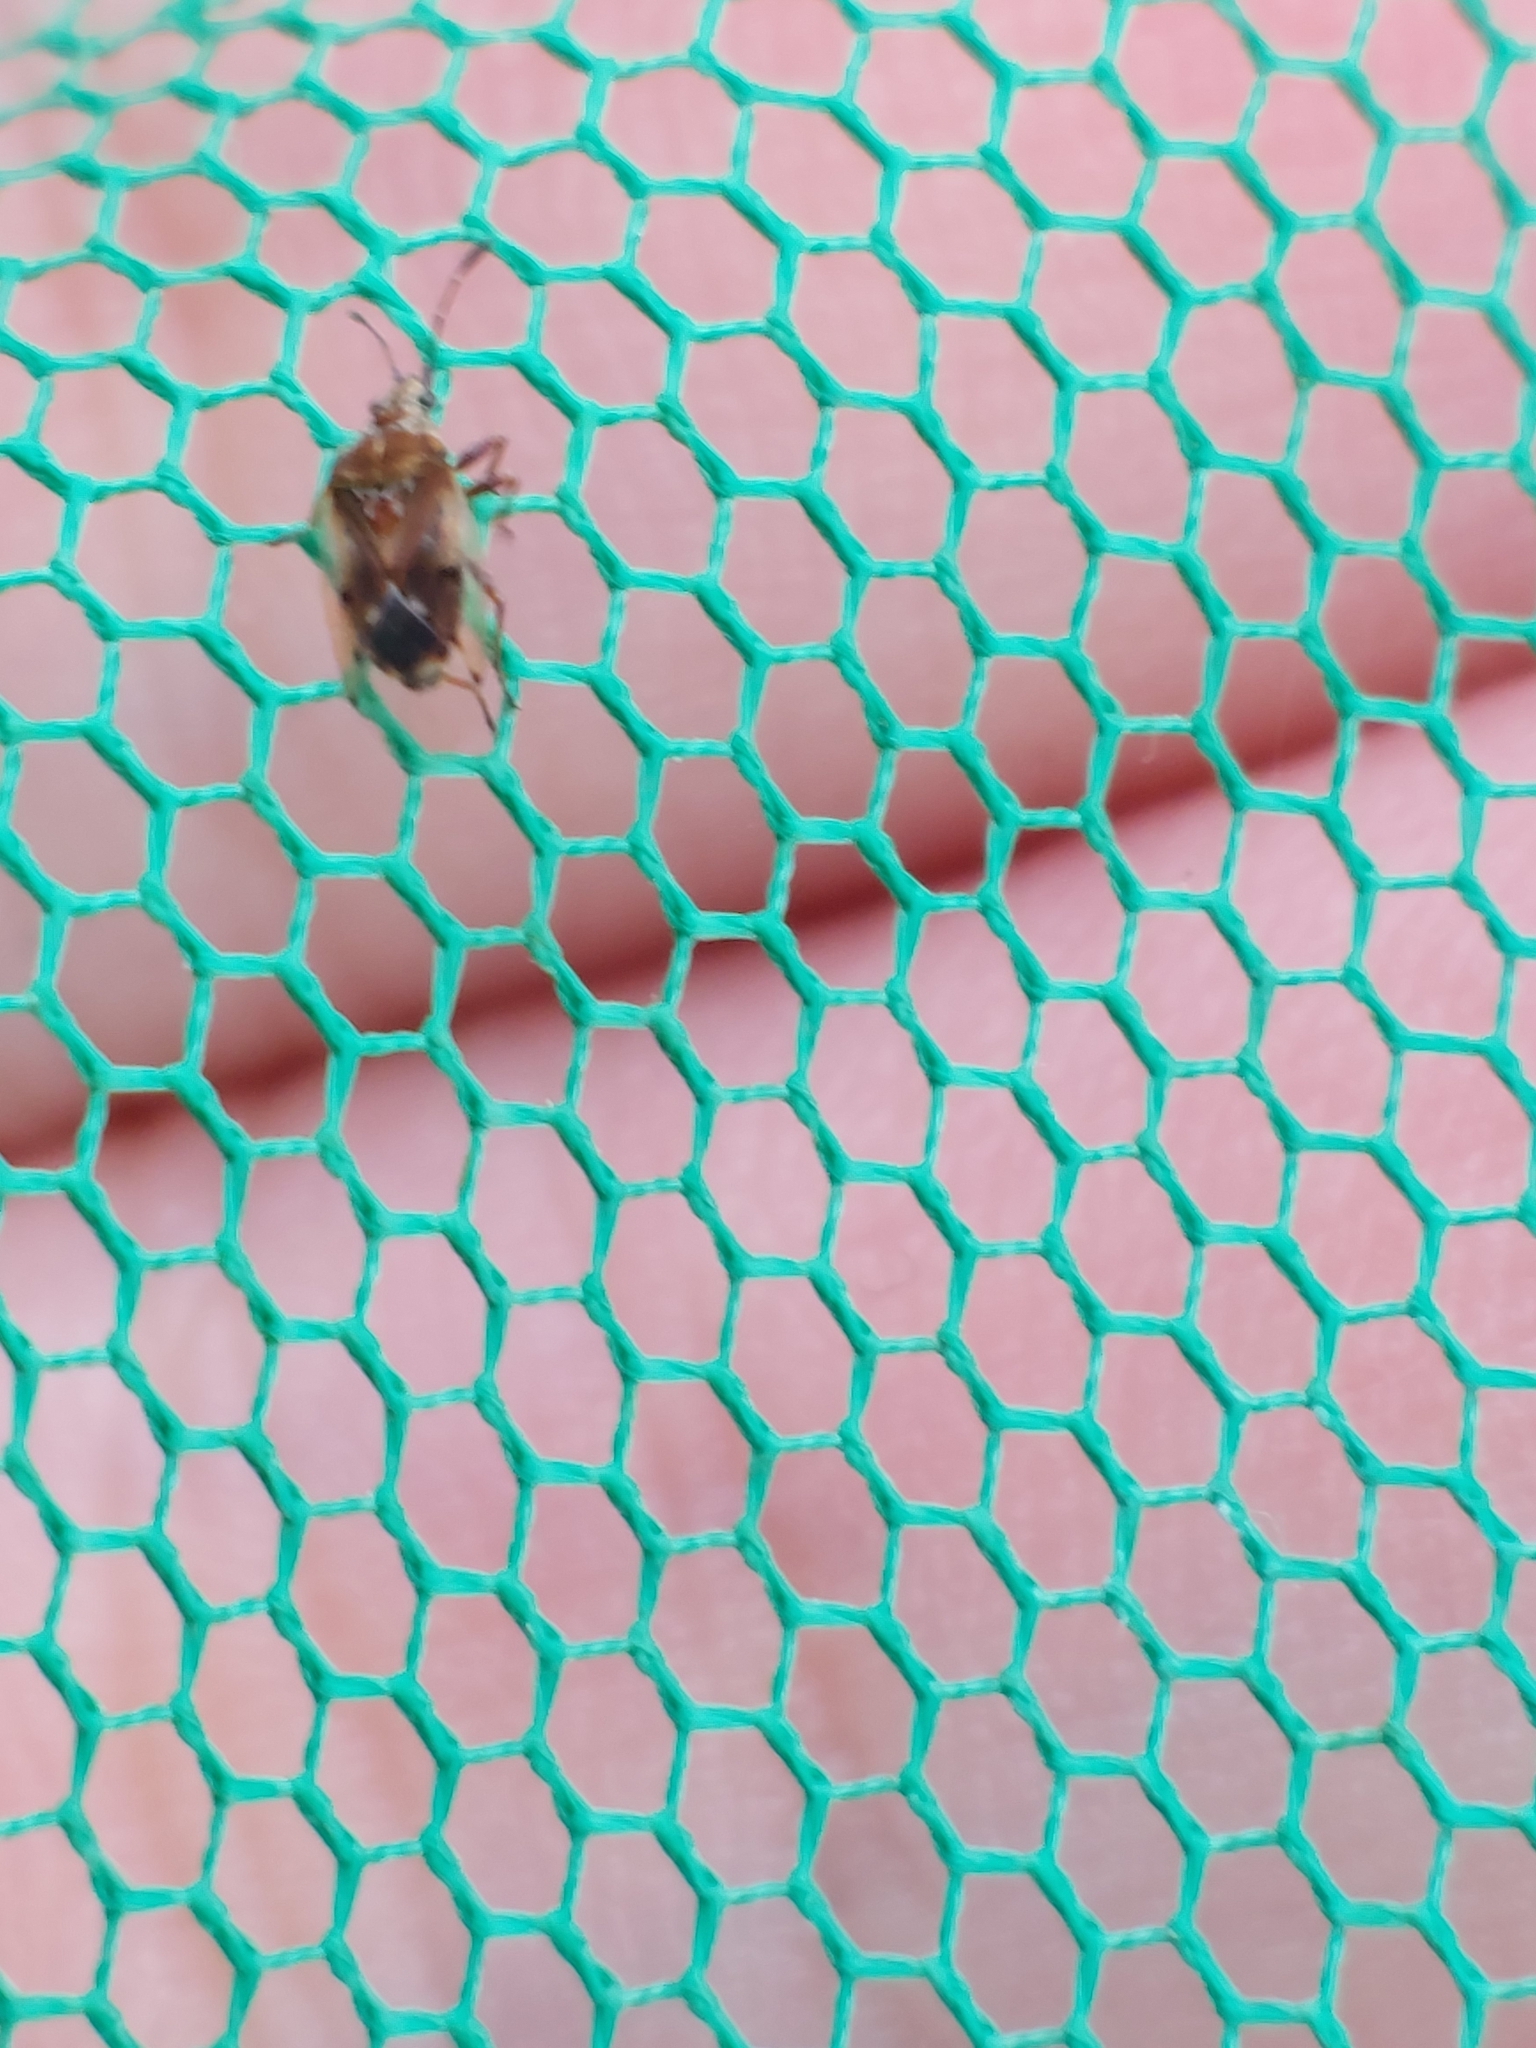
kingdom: Animalia
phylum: Arthropoda
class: Insecta
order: Hemiptera
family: Lygaeidae
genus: Kleidocerys
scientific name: Kleidocerys resedae
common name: Birch catkin bug
